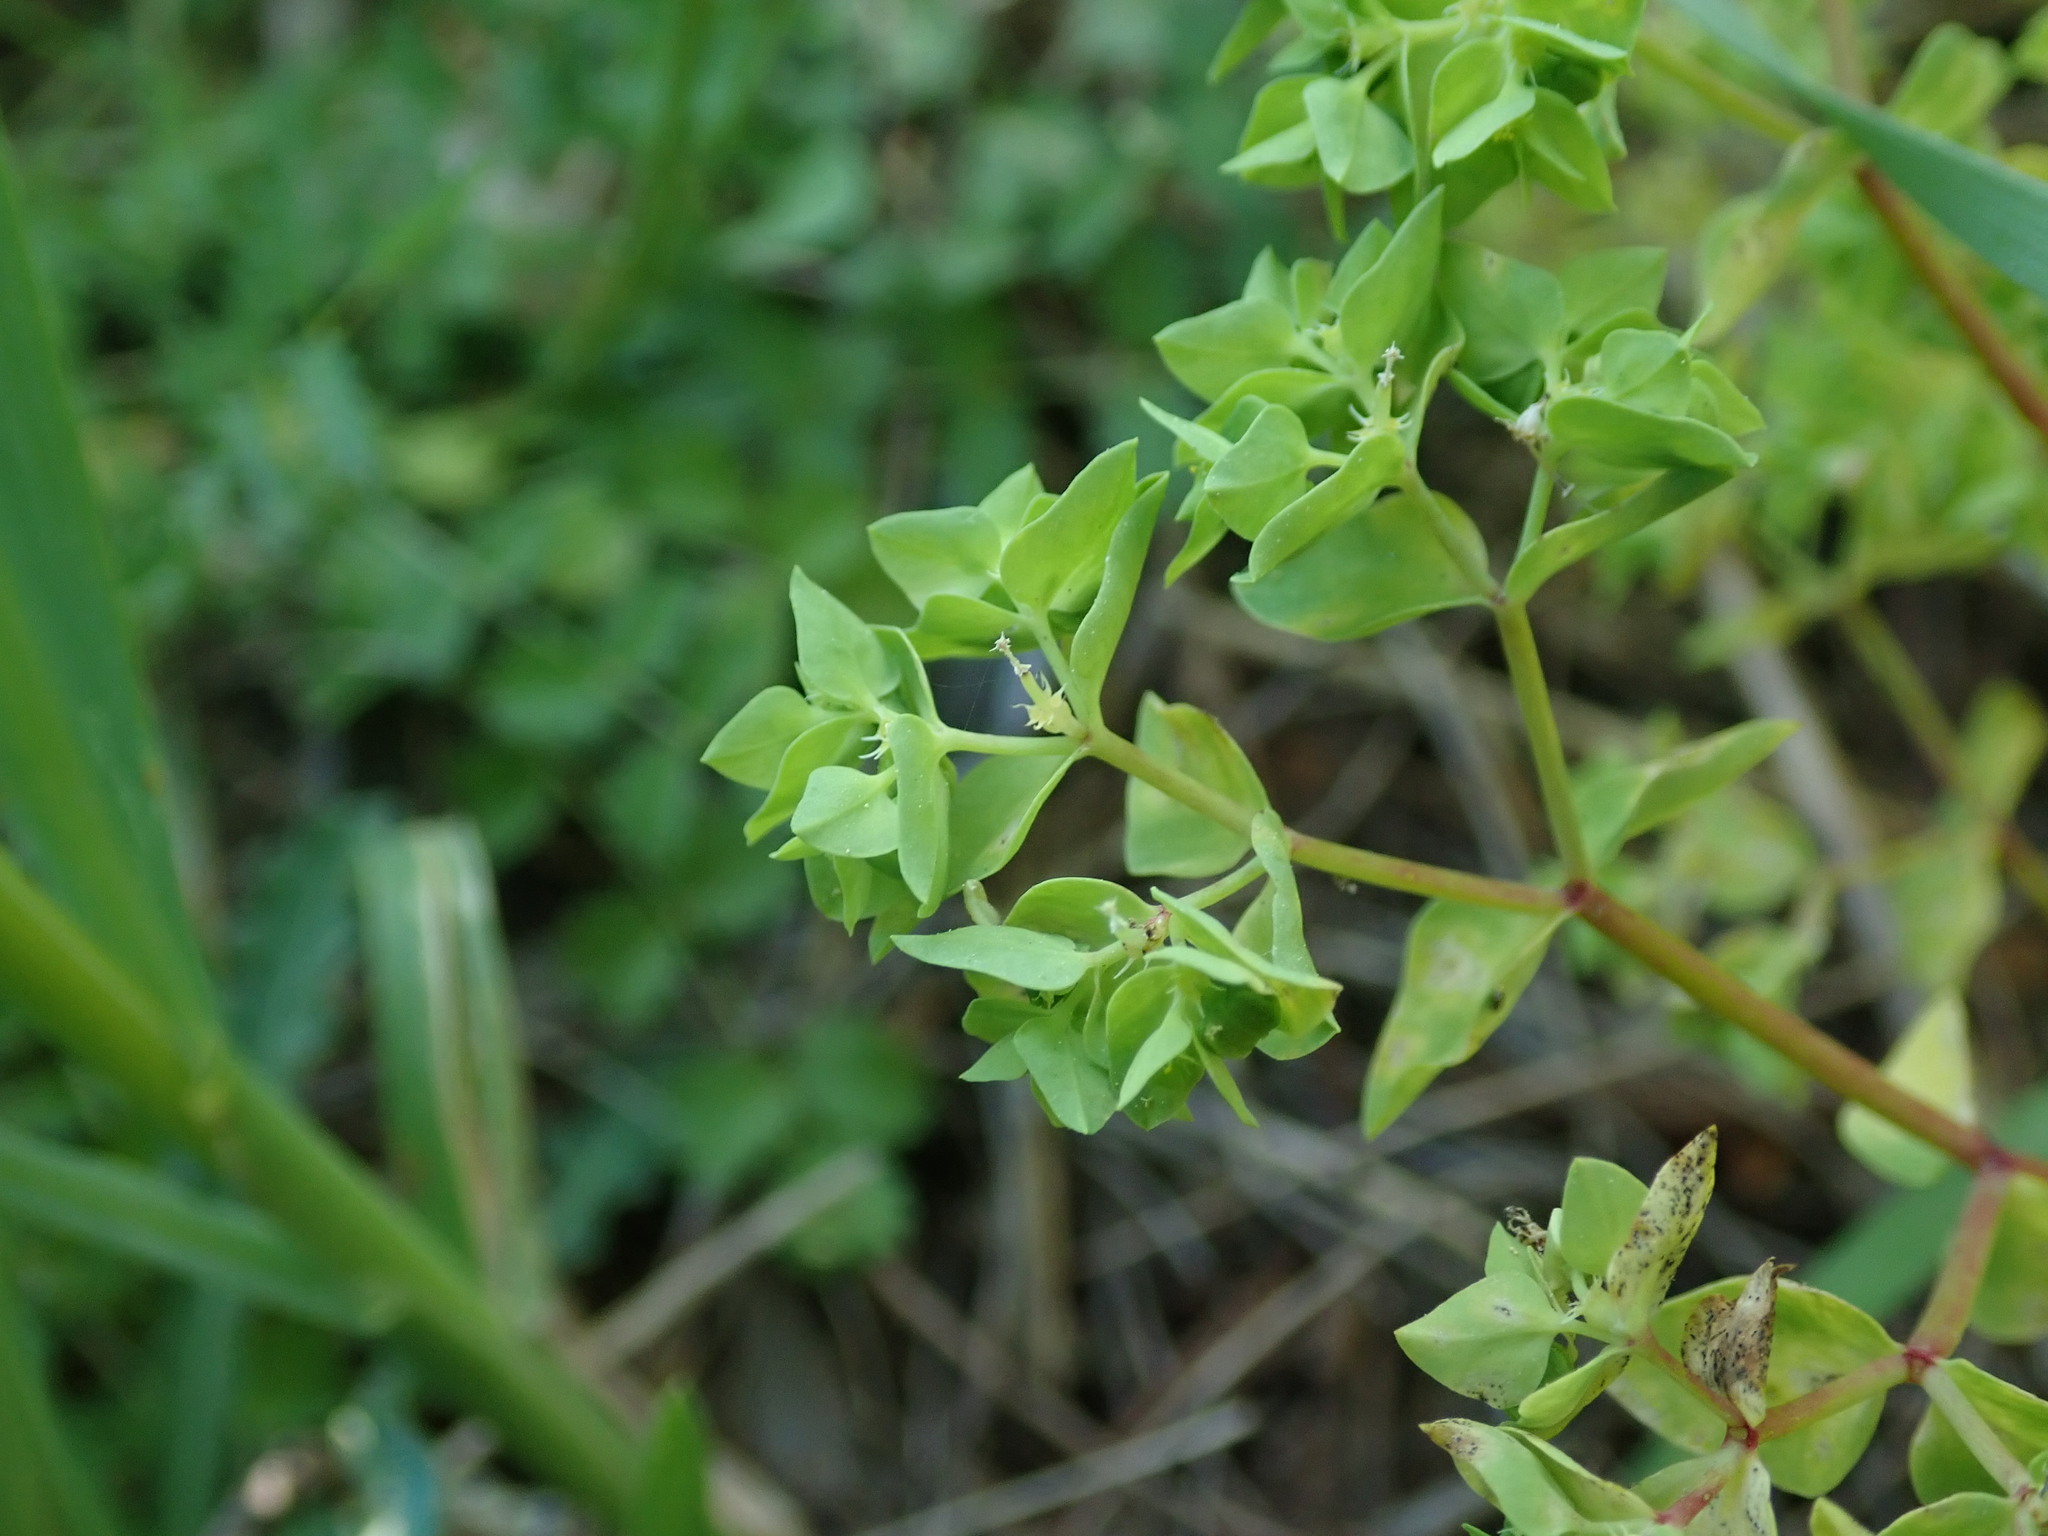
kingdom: Plantae
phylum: Tracheophyta
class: Magnoliopsida
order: Malpighiales
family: Euphorbiaceae
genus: Euphorbia
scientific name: Euphorbia peplus
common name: Petty spurge
